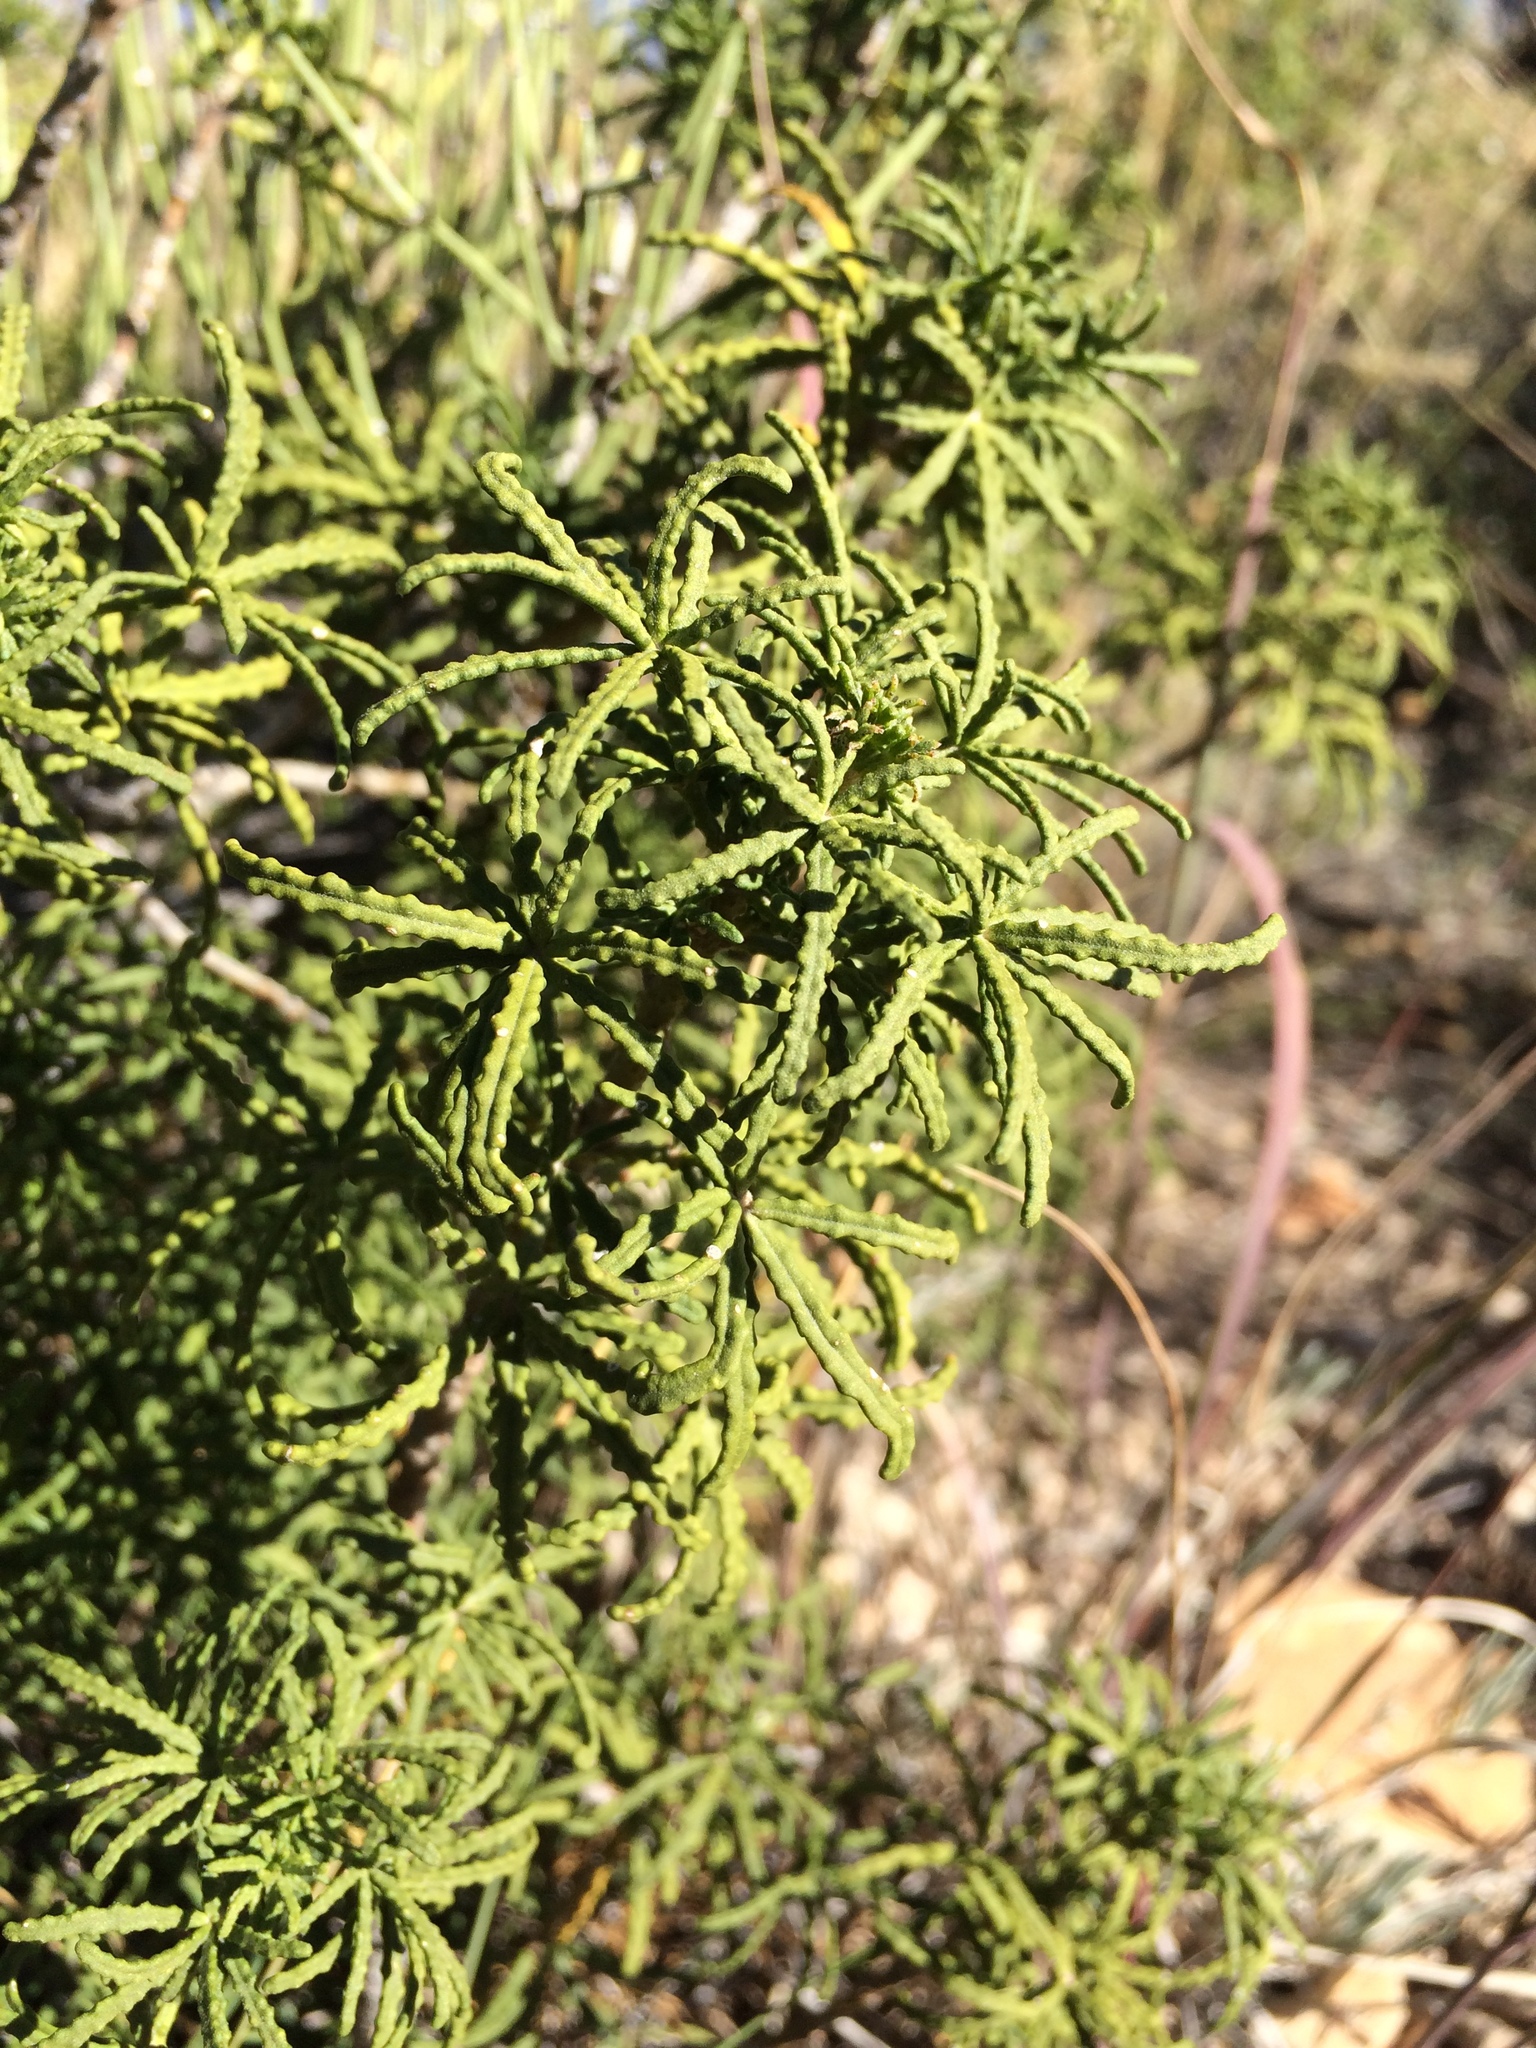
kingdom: Plantae
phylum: Tracheophyta
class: Magnoliopsida
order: Sapindales
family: Rutaceae
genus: Choisya
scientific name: Choisya dumosa
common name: Mexican-orange
